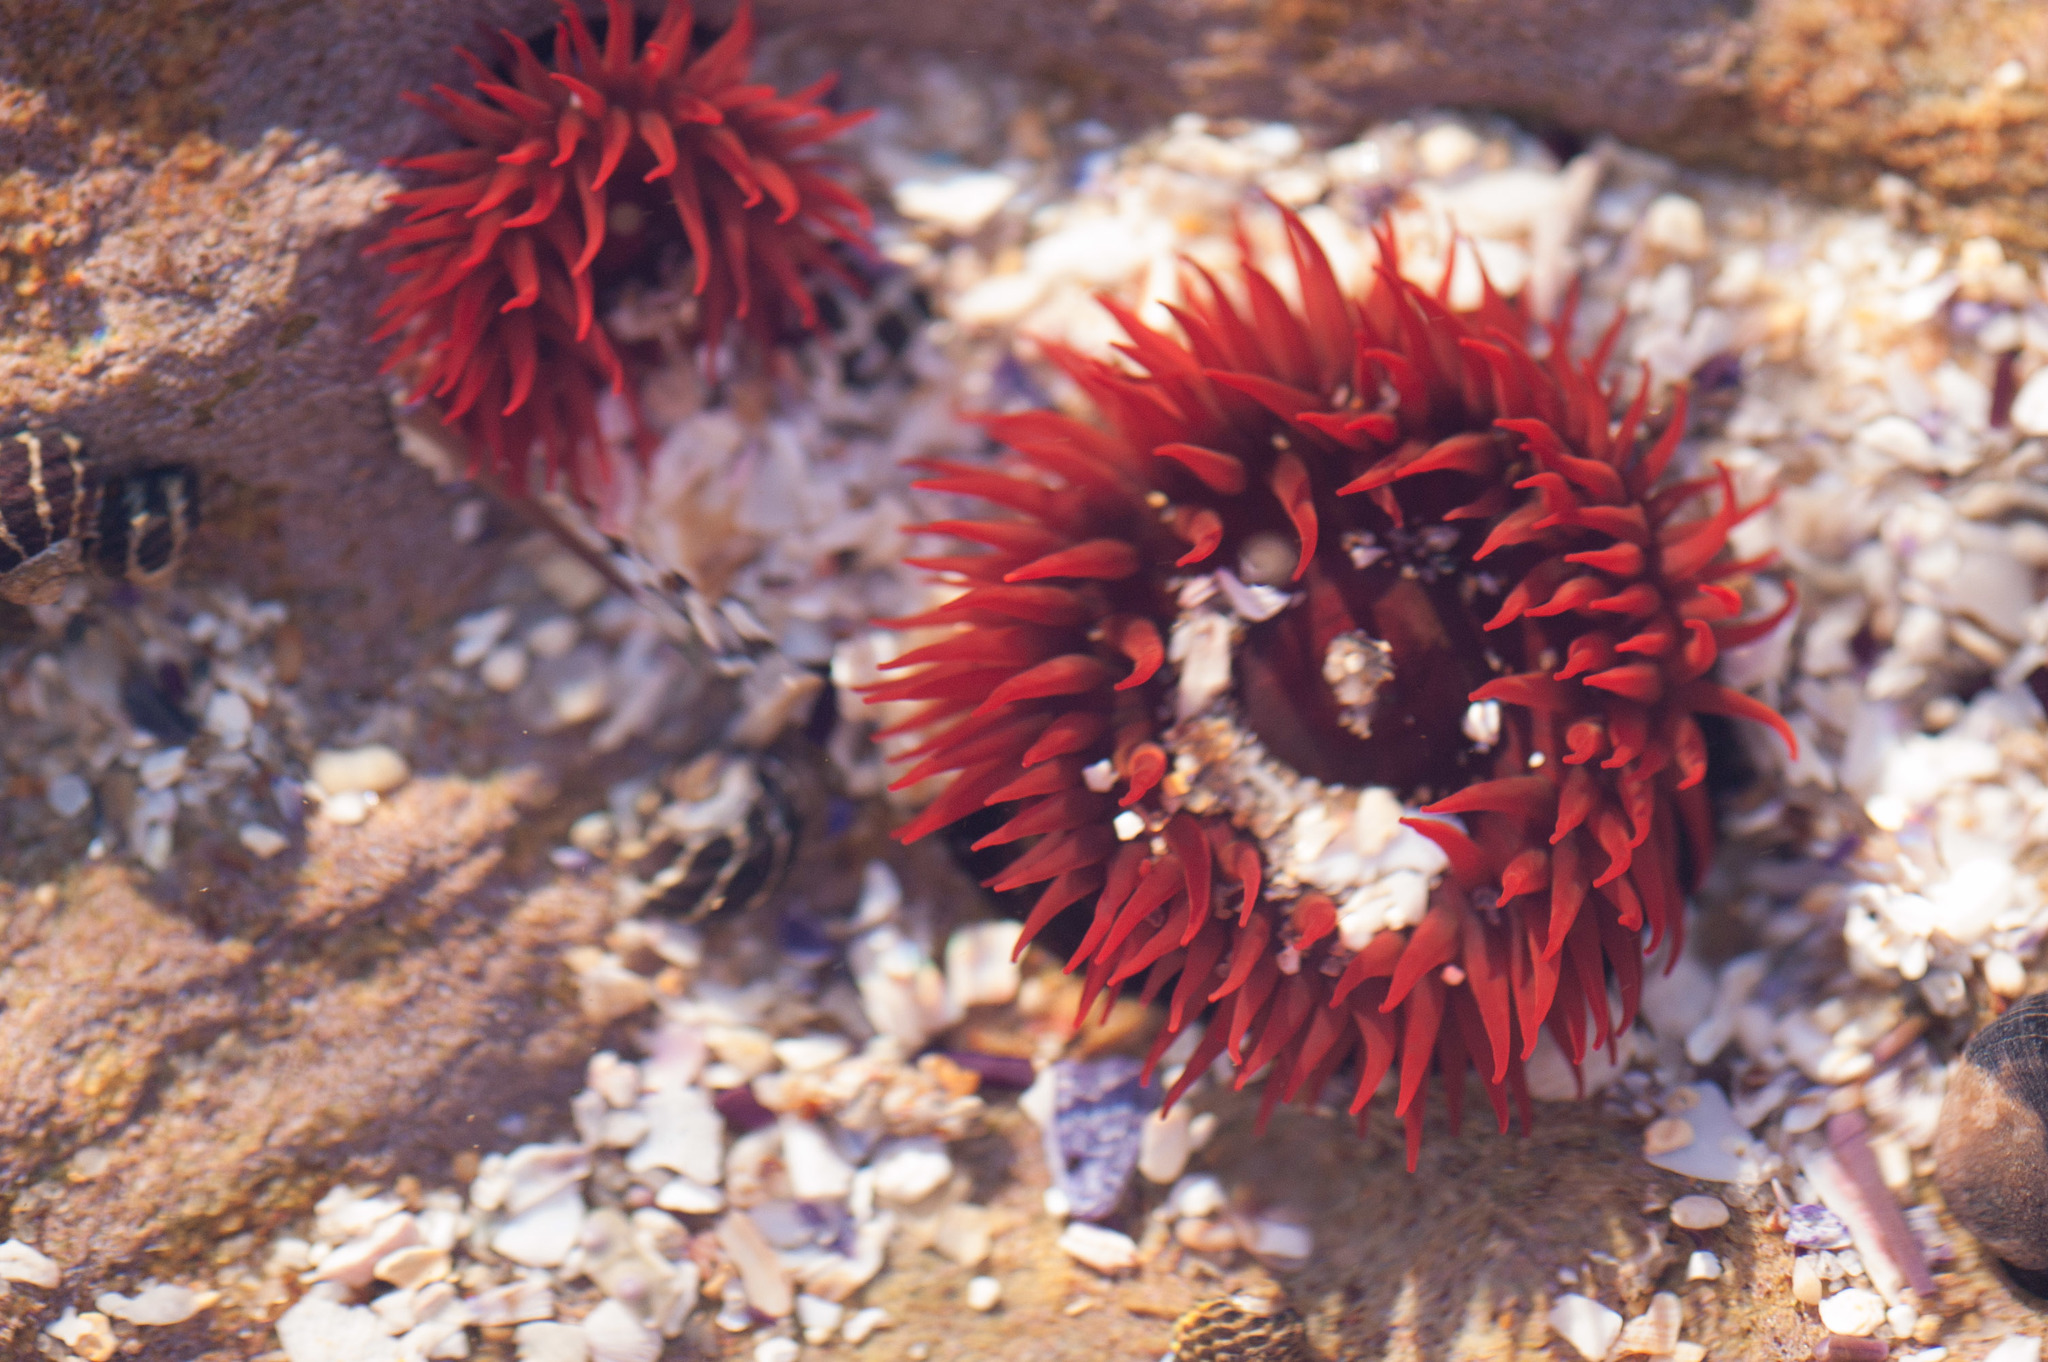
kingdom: Animalia
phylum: Cnidaria
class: Anthozoa
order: Actiniaria
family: Actiniidae
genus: Actinia
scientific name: Actinia tenebrosa
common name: Waratah anemone
